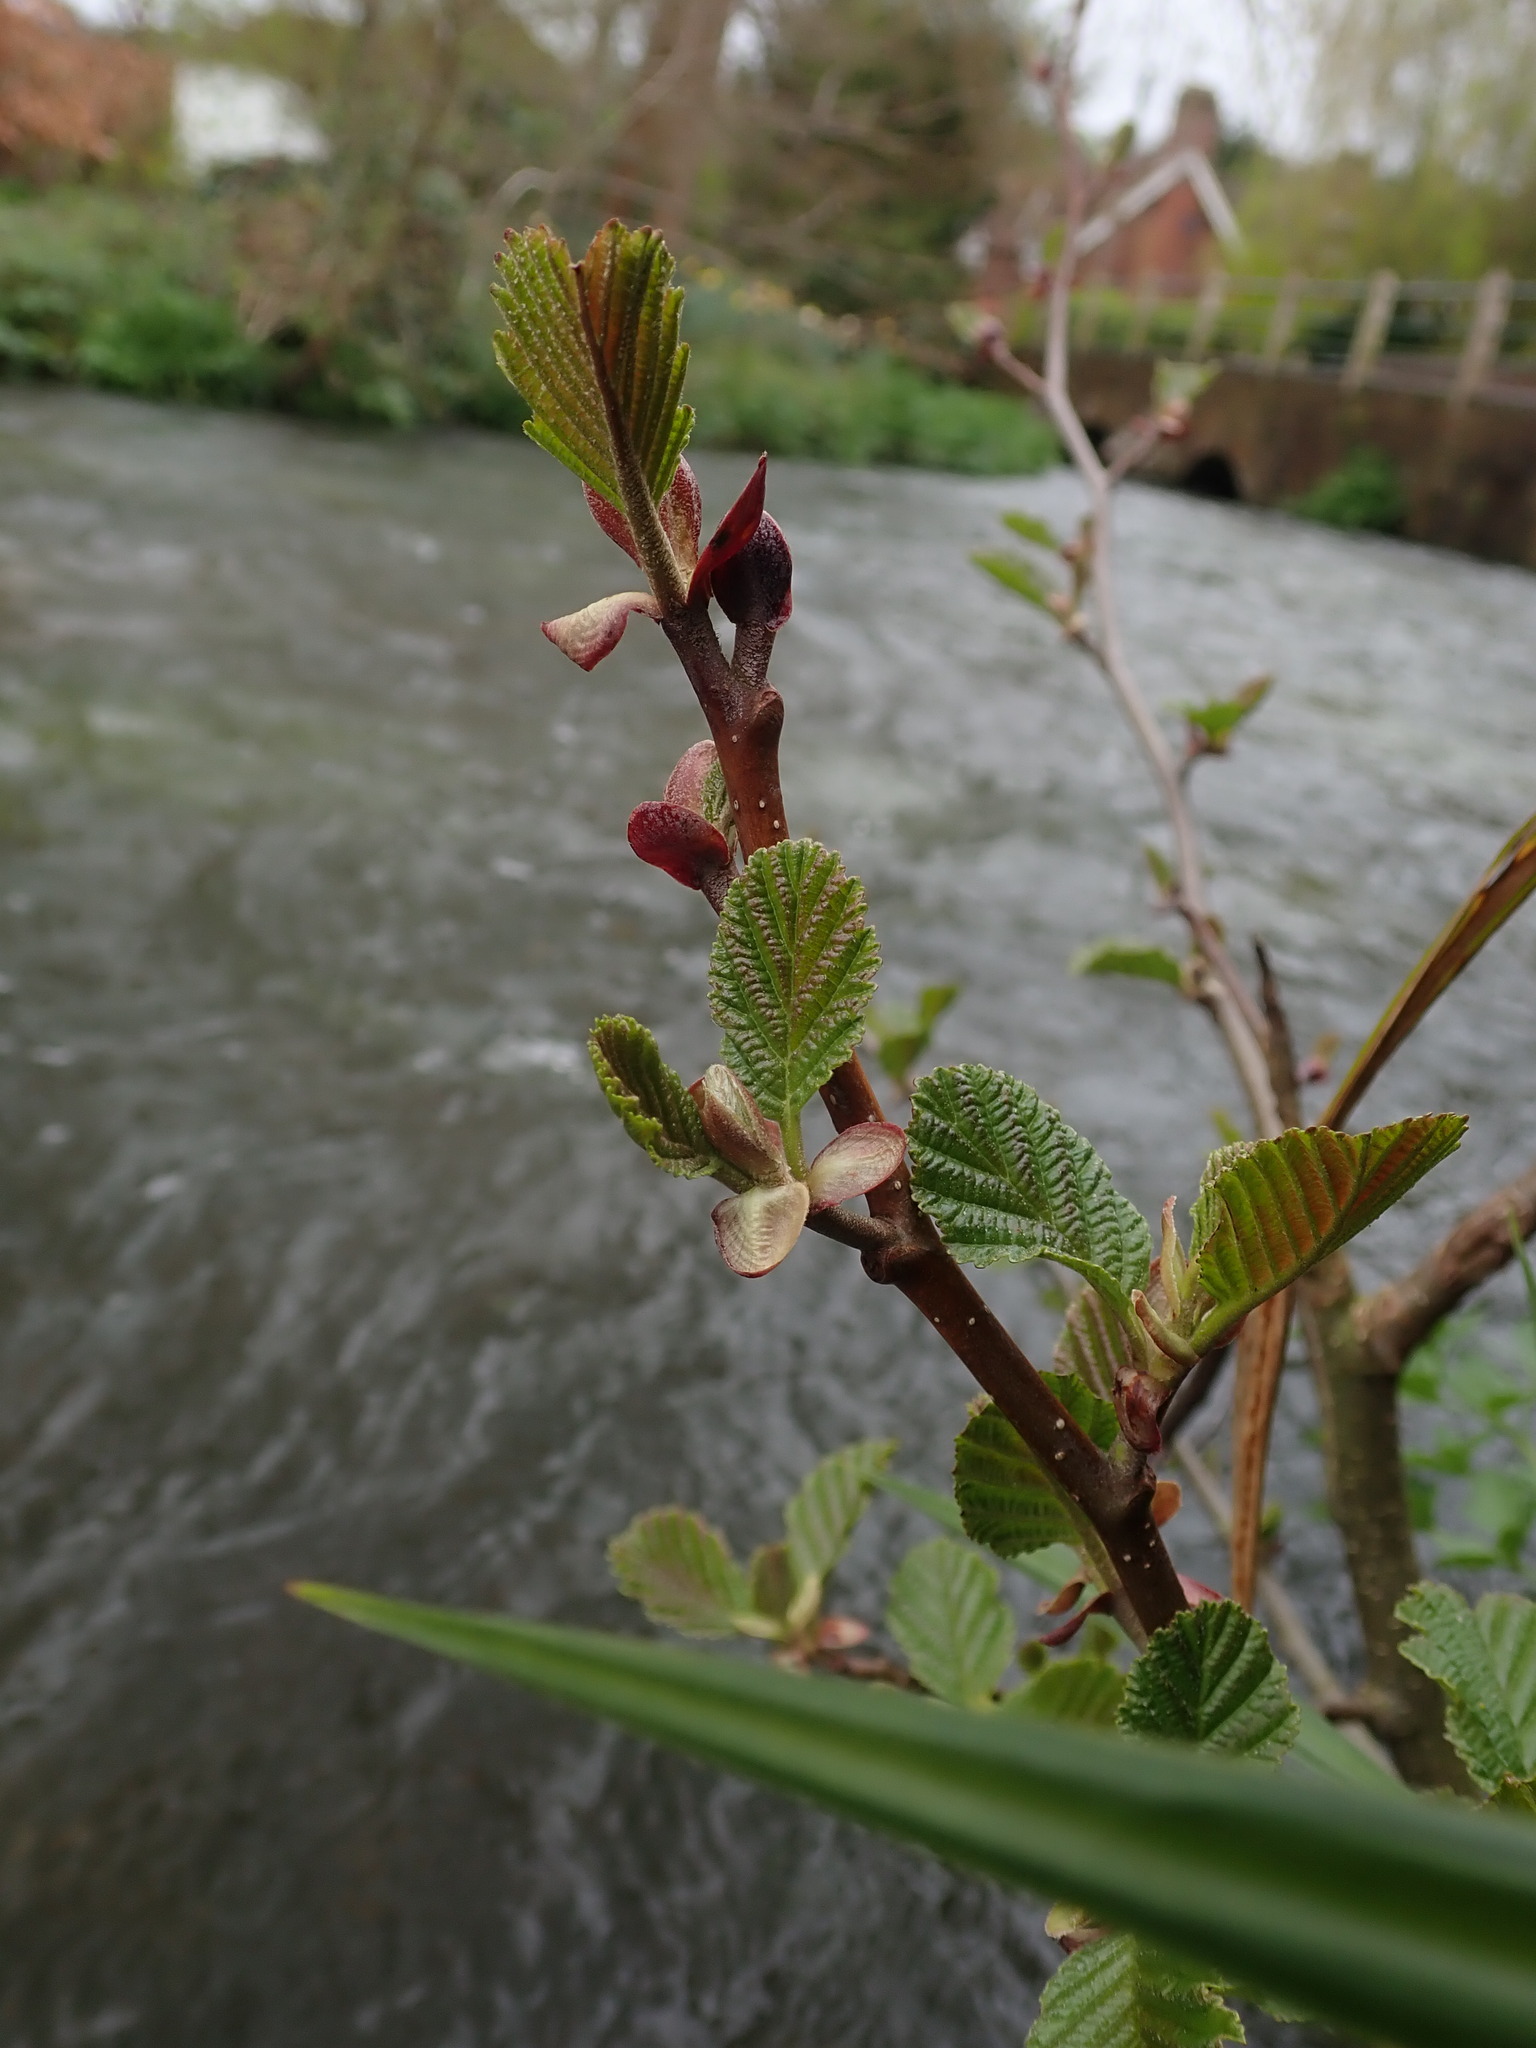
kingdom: Plantae
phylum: Tracheophyta
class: Magnoliopsida
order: Fagales
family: Betulaceae
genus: Alnus
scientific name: Alnus glutinosa
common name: Black alder
